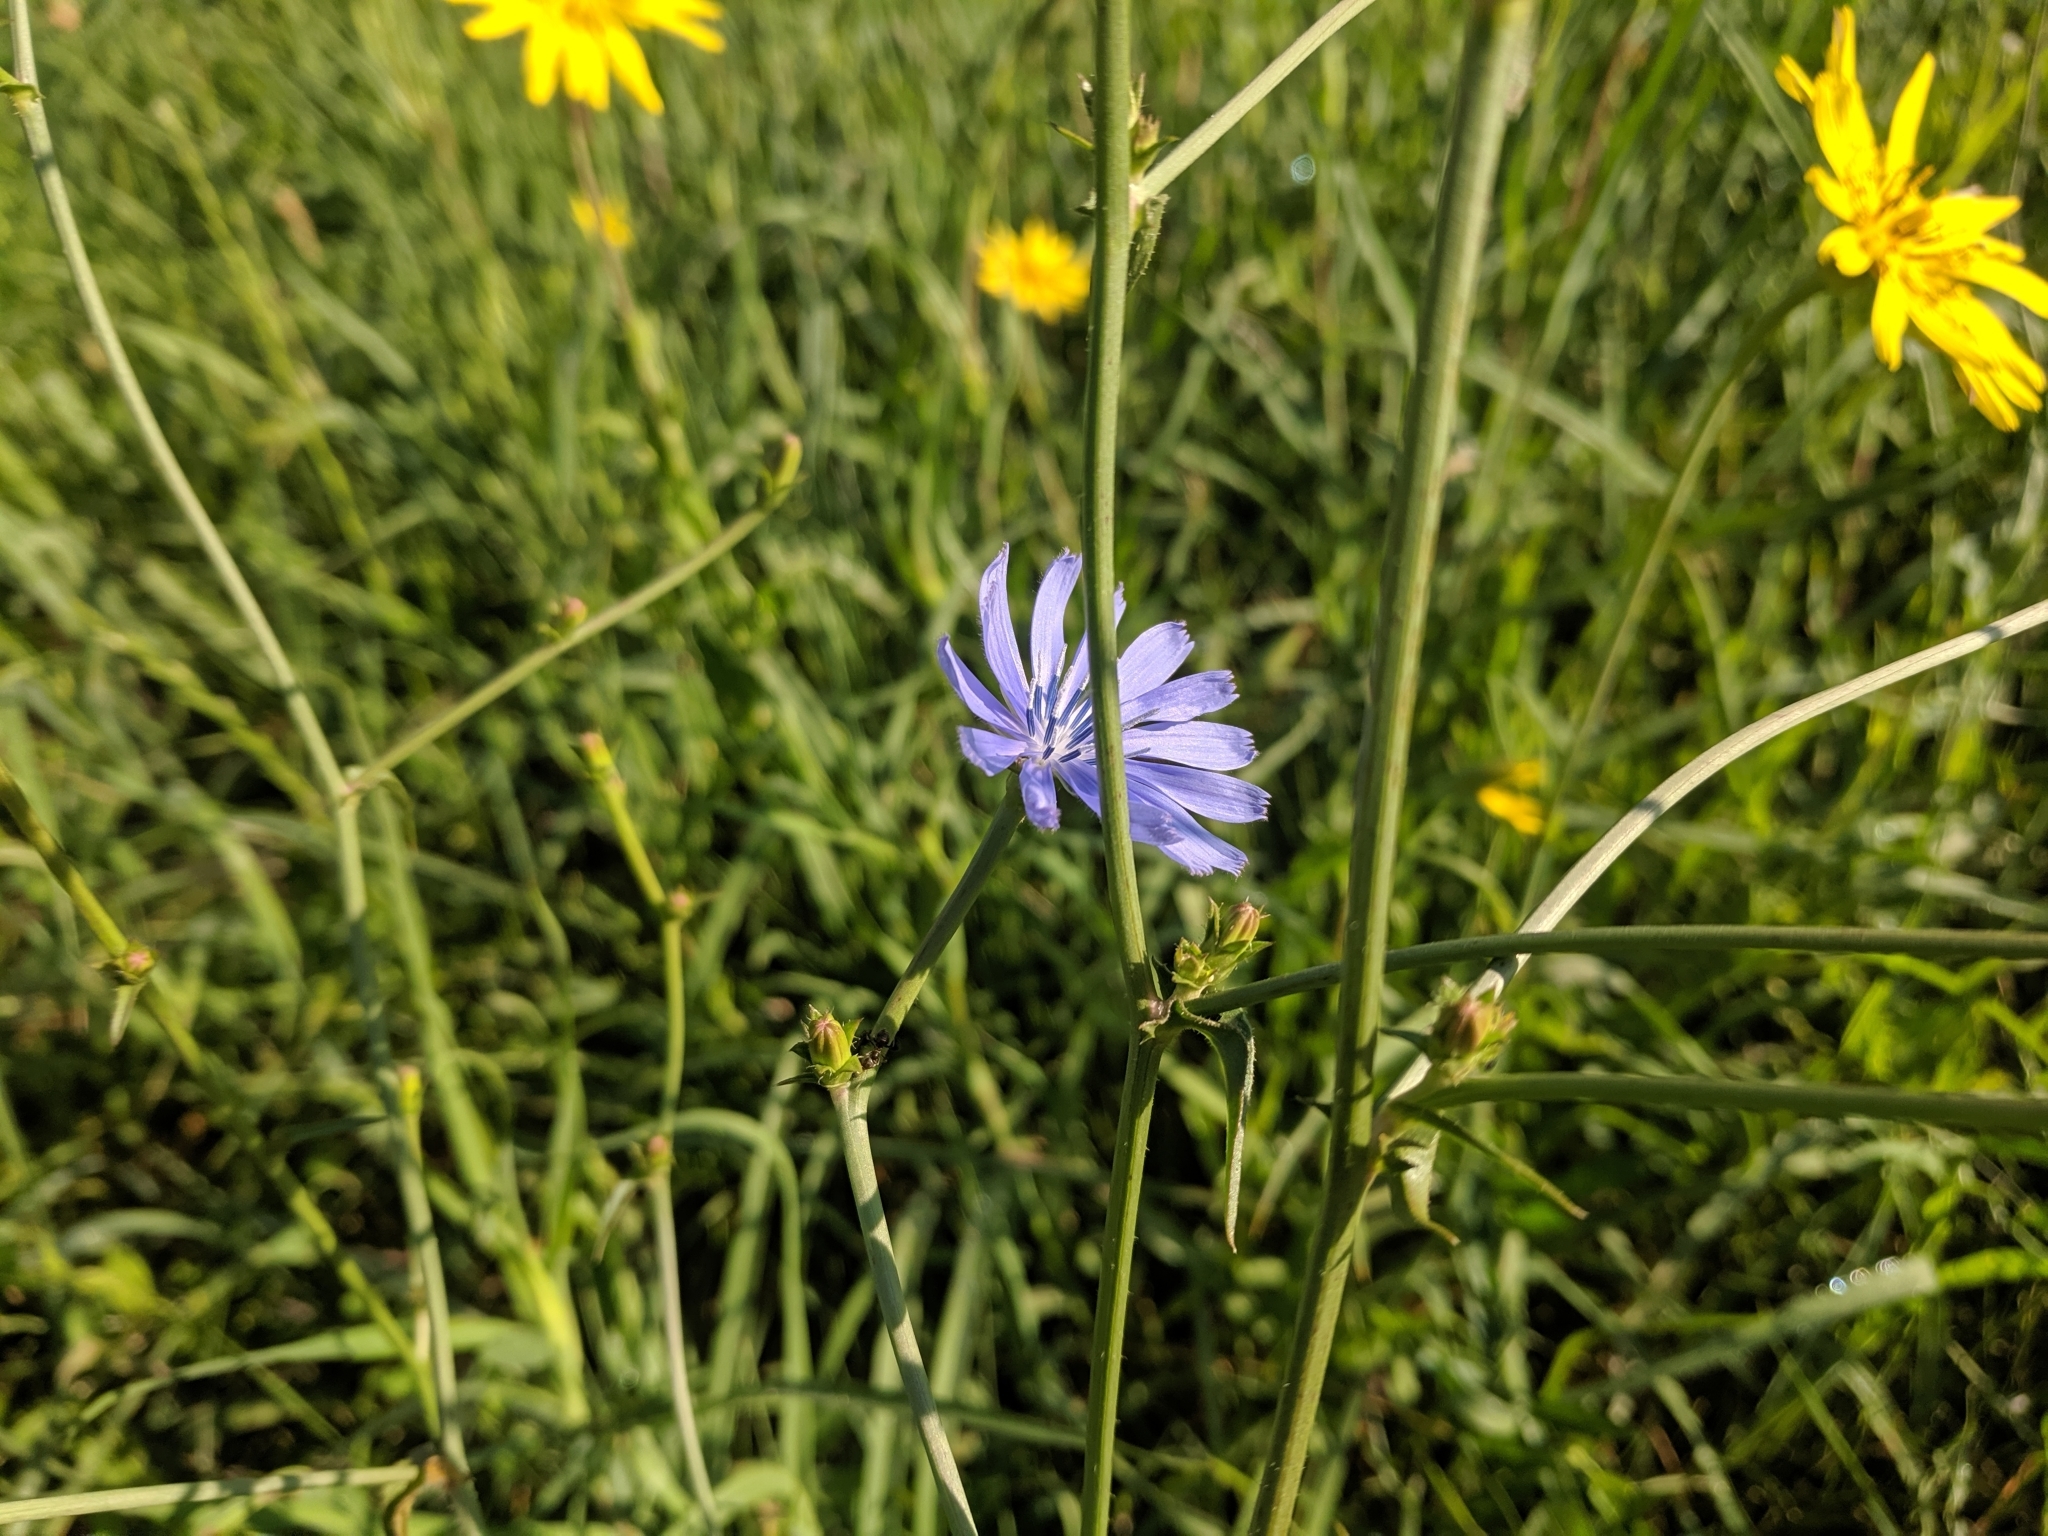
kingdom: Plantae
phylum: Tracheophyta
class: Magnoliopsida
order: Asterales
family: Asteraceae
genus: Cichorium
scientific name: Cichorium intybus
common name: Chicory
